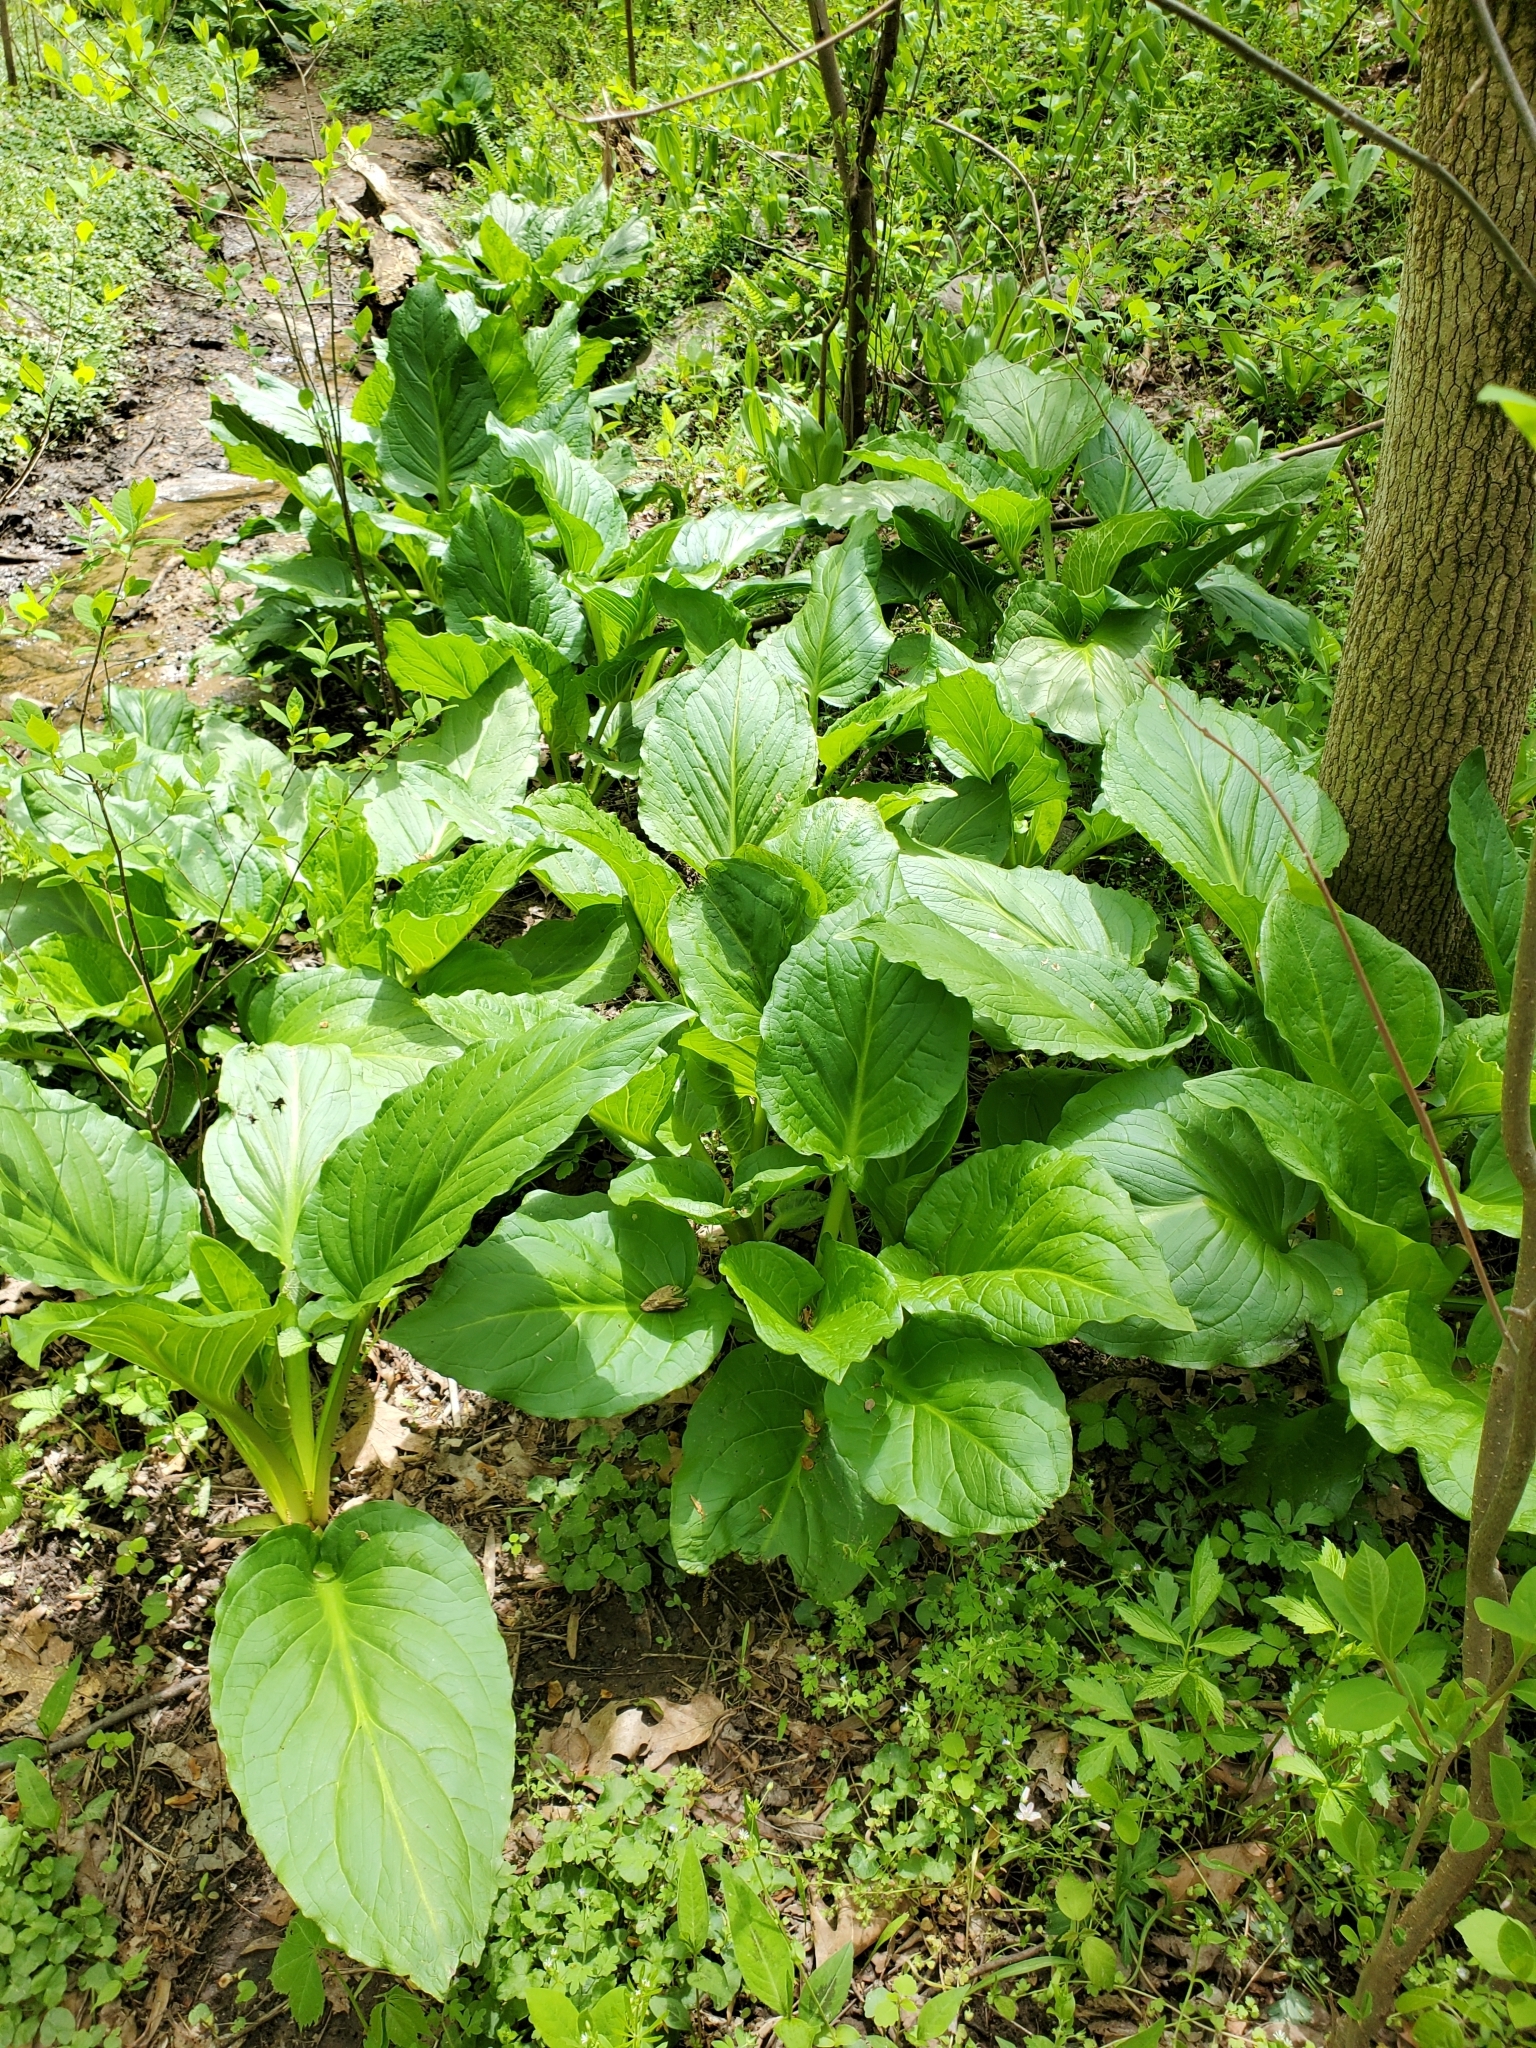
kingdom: Plantae
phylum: Tracheophyta
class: Liliopsida
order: Alismatales
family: Araceae
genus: Symplocarpus
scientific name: Symplocarpus foetidus
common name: Eastern skunk cabbage
